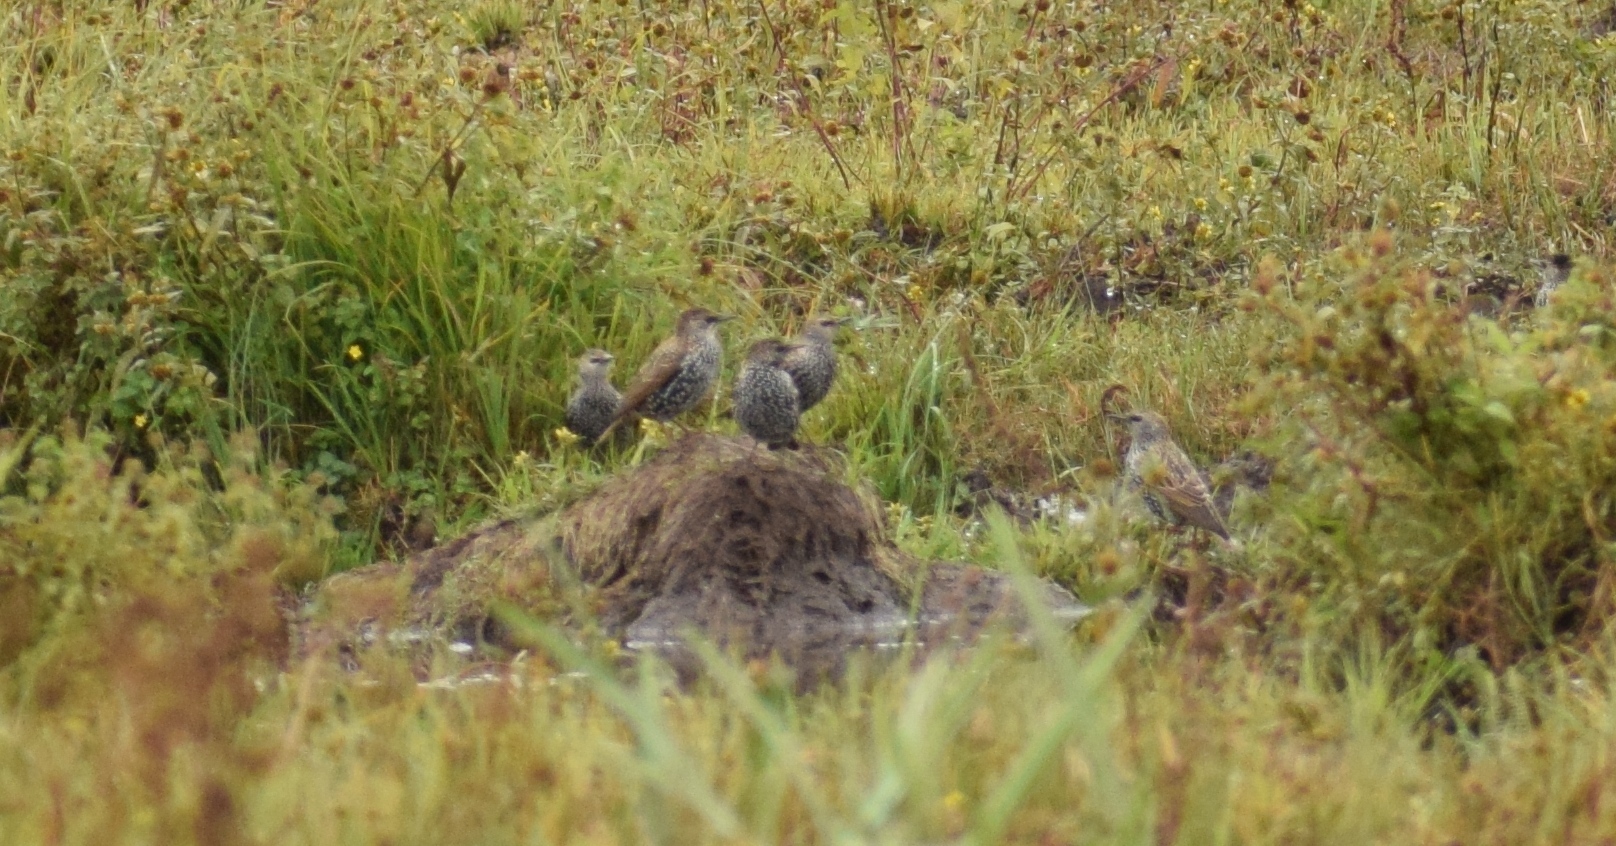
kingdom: Animalia
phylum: Chordata
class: Aves
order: Passeriformes
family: Sturnidae
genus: Sturnus
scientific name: Sturnus vulgaris
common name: Common starling
